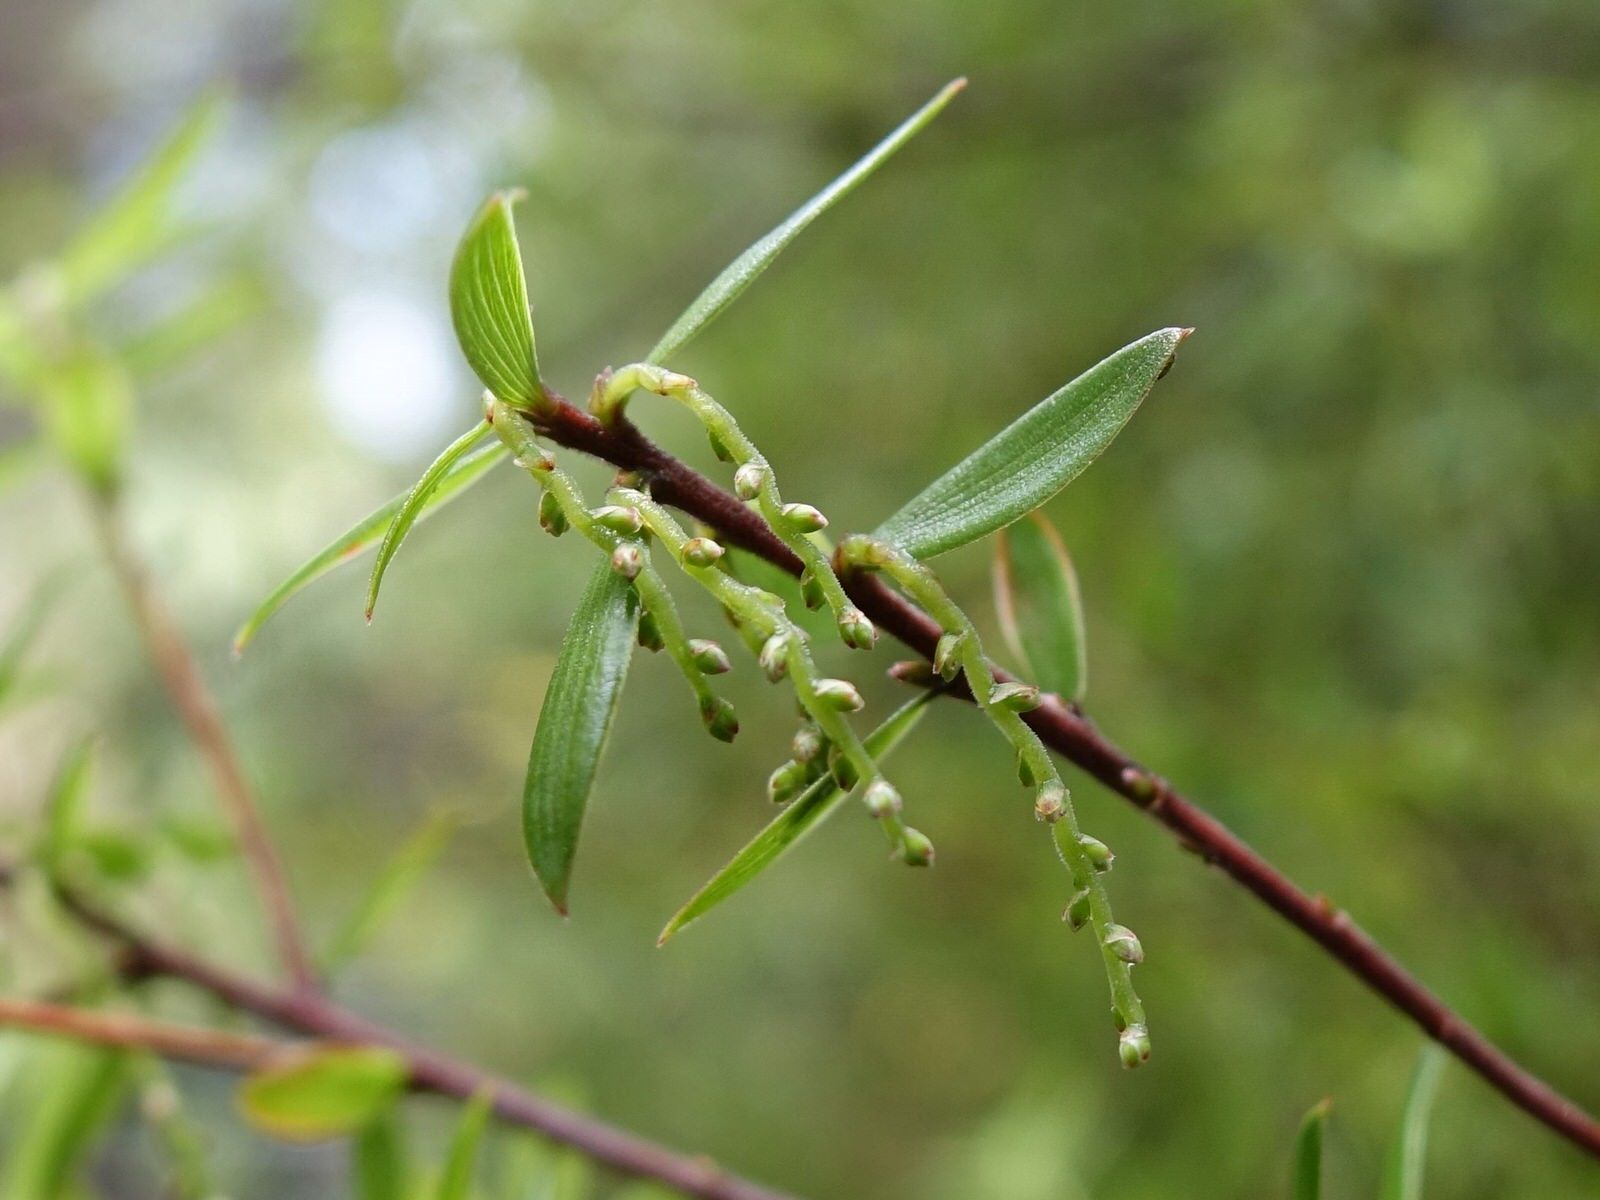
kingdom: Plantae
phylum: Tracheophyta
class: Magnoliopsida
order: Ericales
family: Ericaceae
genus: Leucopogon
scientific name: Leucopogon fasciculatus
